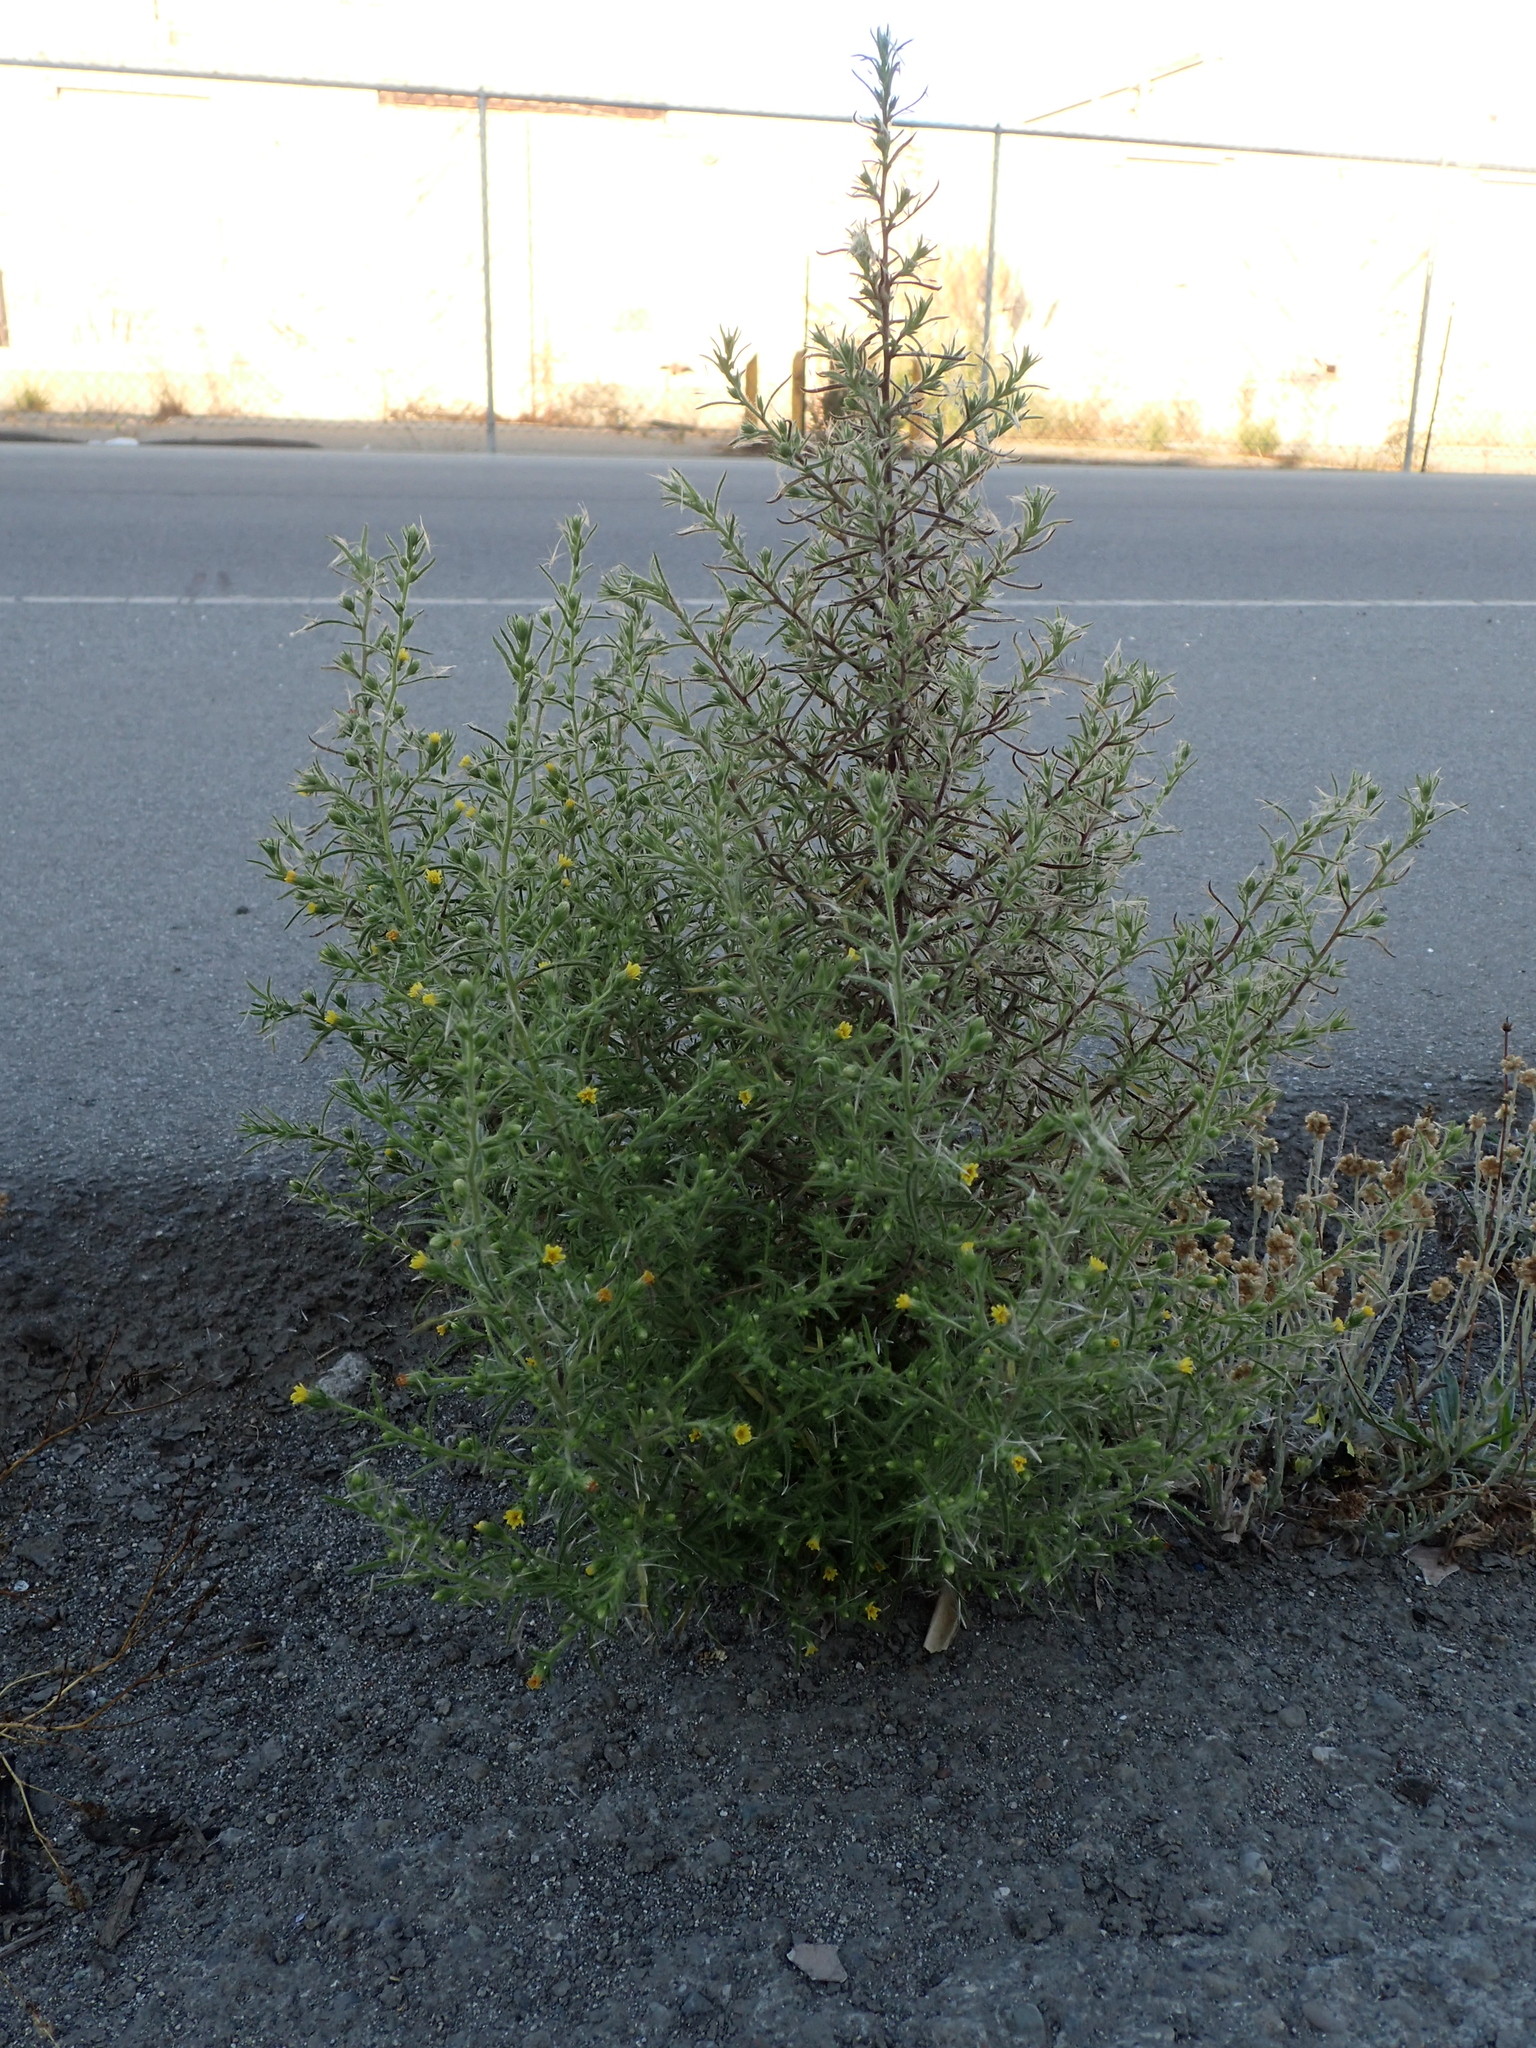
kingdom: Plantae
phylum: Tracheophyta
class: Magnoliopsida
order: Asterales
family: Asteraceae
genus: Dittrichia
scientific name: Dittrichia graveolens
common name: Stinking fleabane
